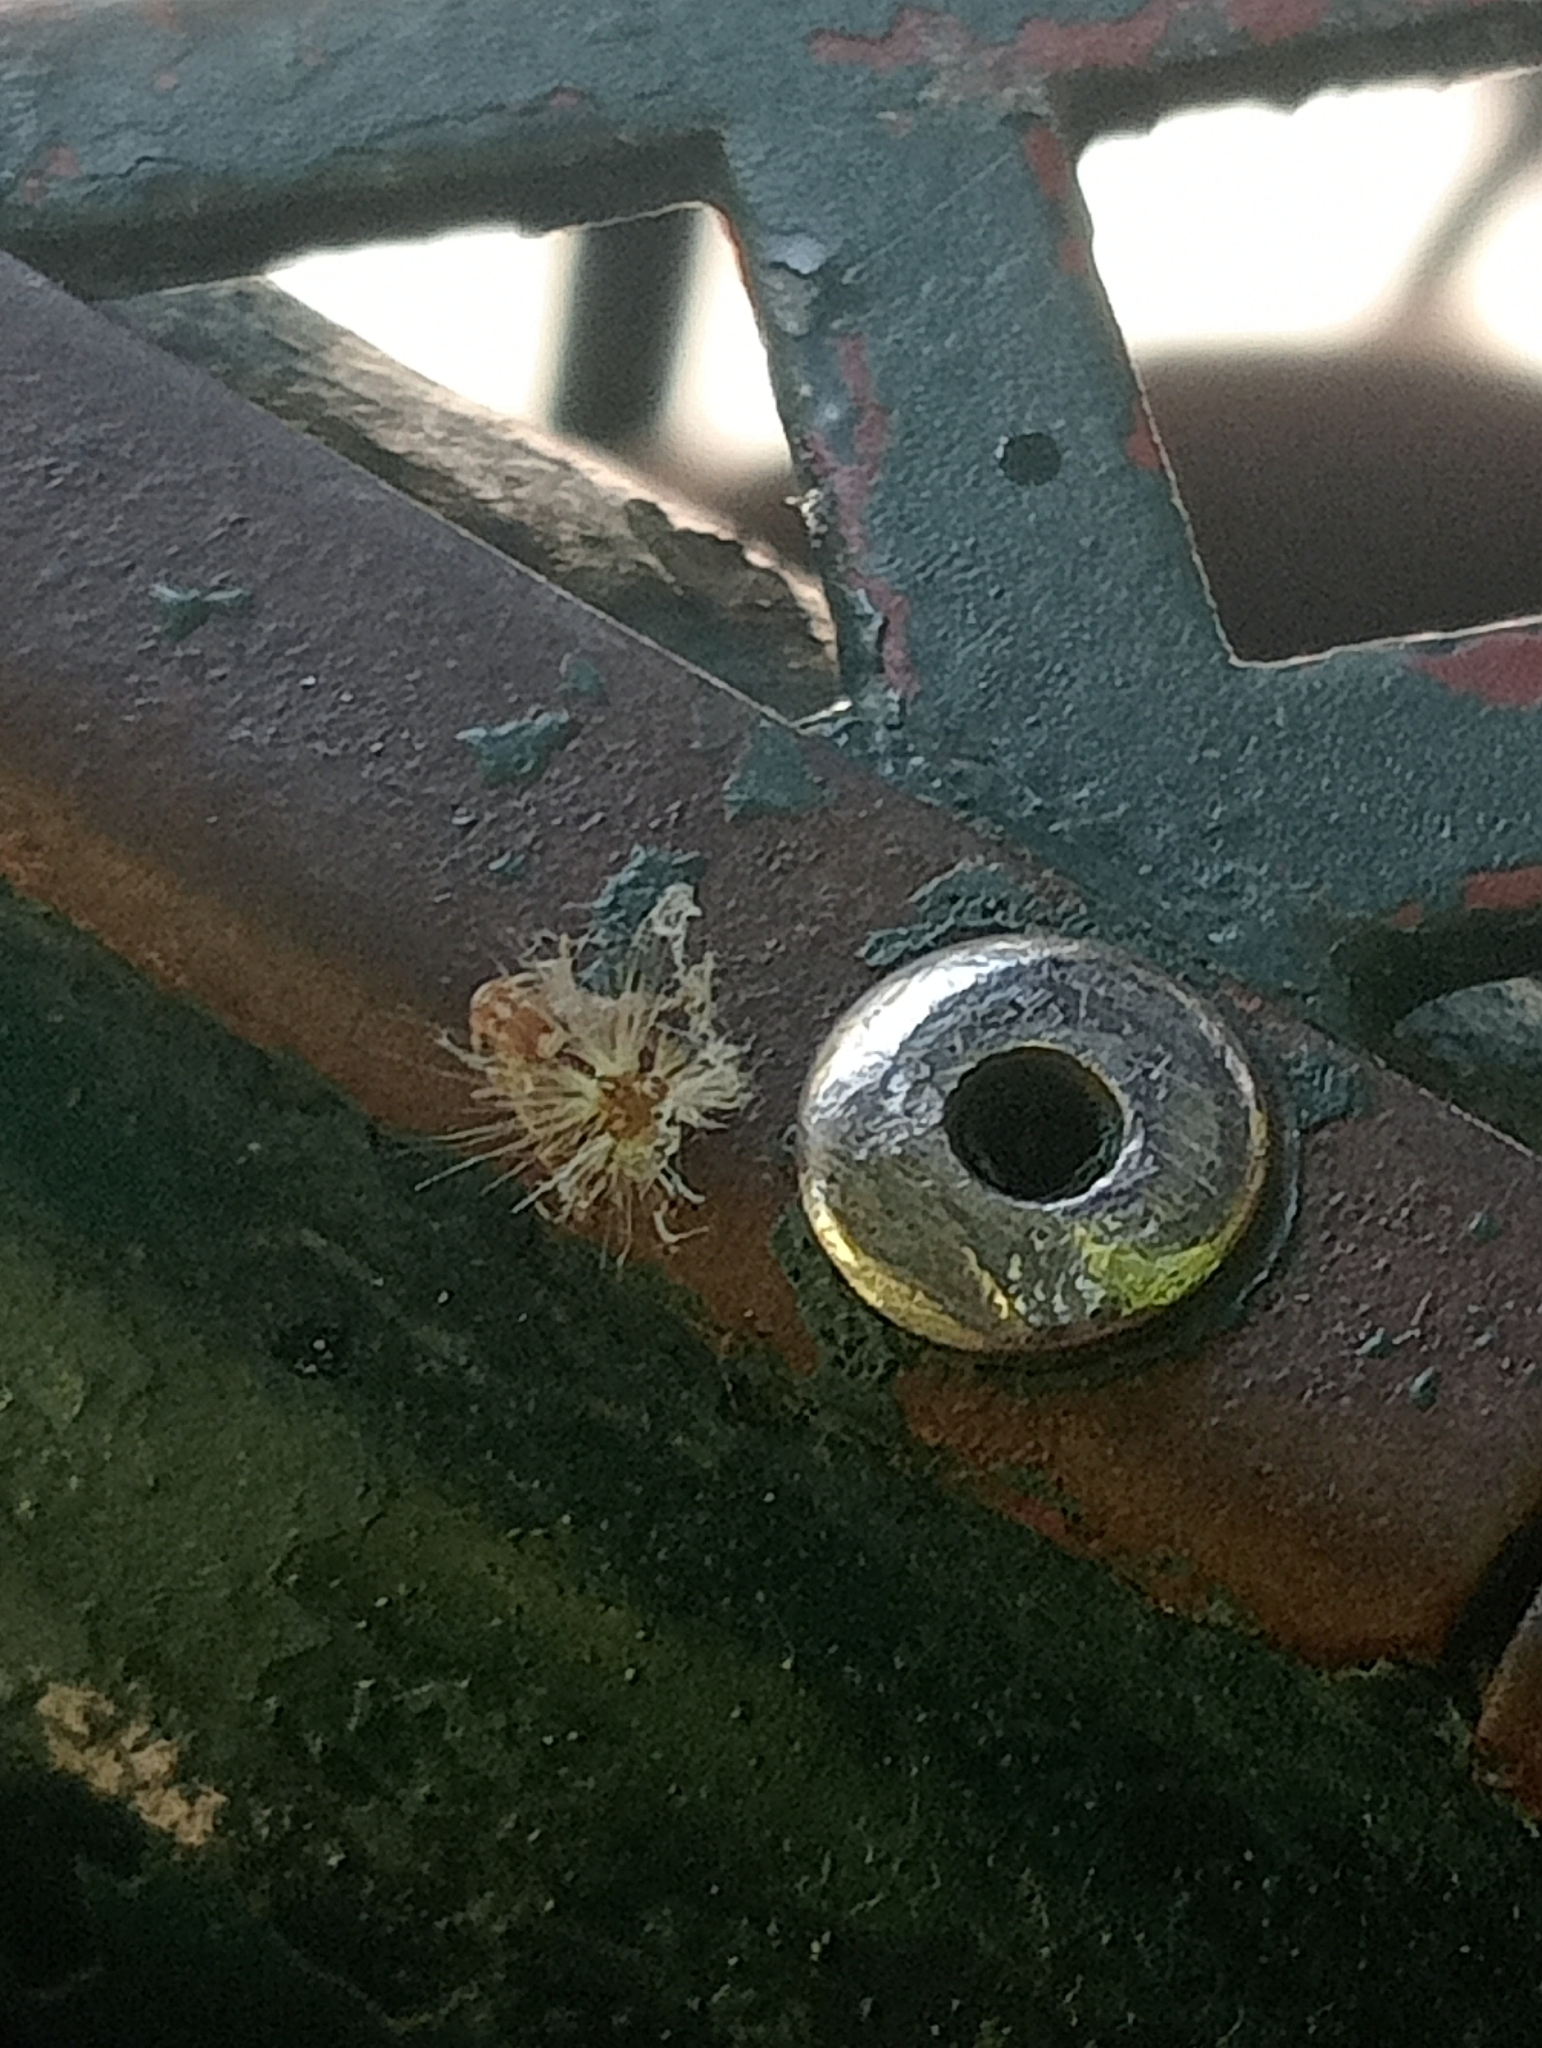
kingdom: Animalia
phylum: Arthropoda
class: Insecta
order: Hemiptera
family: Ricaniidae
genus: Scolypopa
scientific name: Scolypopa australis
